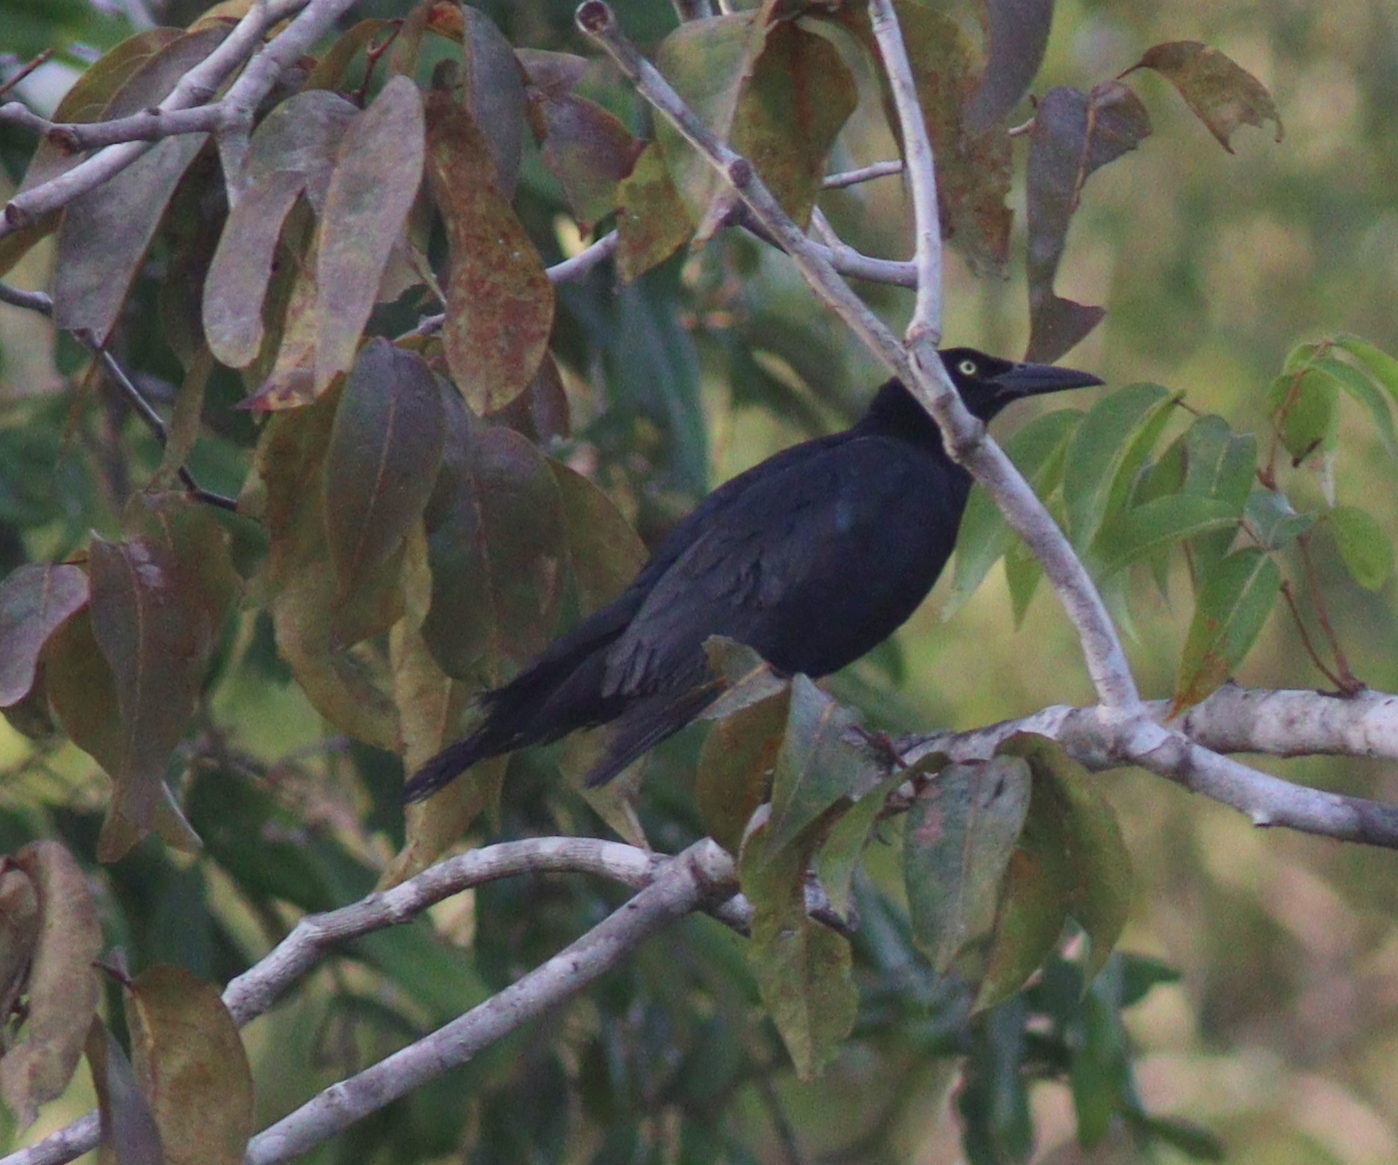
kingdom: Animalia
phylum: Chordata
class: Aves
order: Passeriformes
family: Icteridae
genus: Quiscalus
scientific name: Quiscalus mexicanus
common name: Great-tailed grackle
